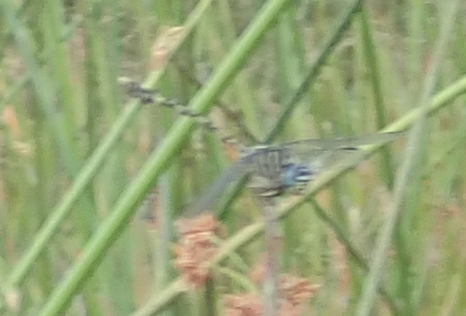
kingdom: Animalia
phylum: Arthropoda
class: Insecta
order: Odonata
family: Gomphidae
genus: Ictinogomphus
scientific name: Ictinogomphus dundoensis
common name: Swamp tigertail
